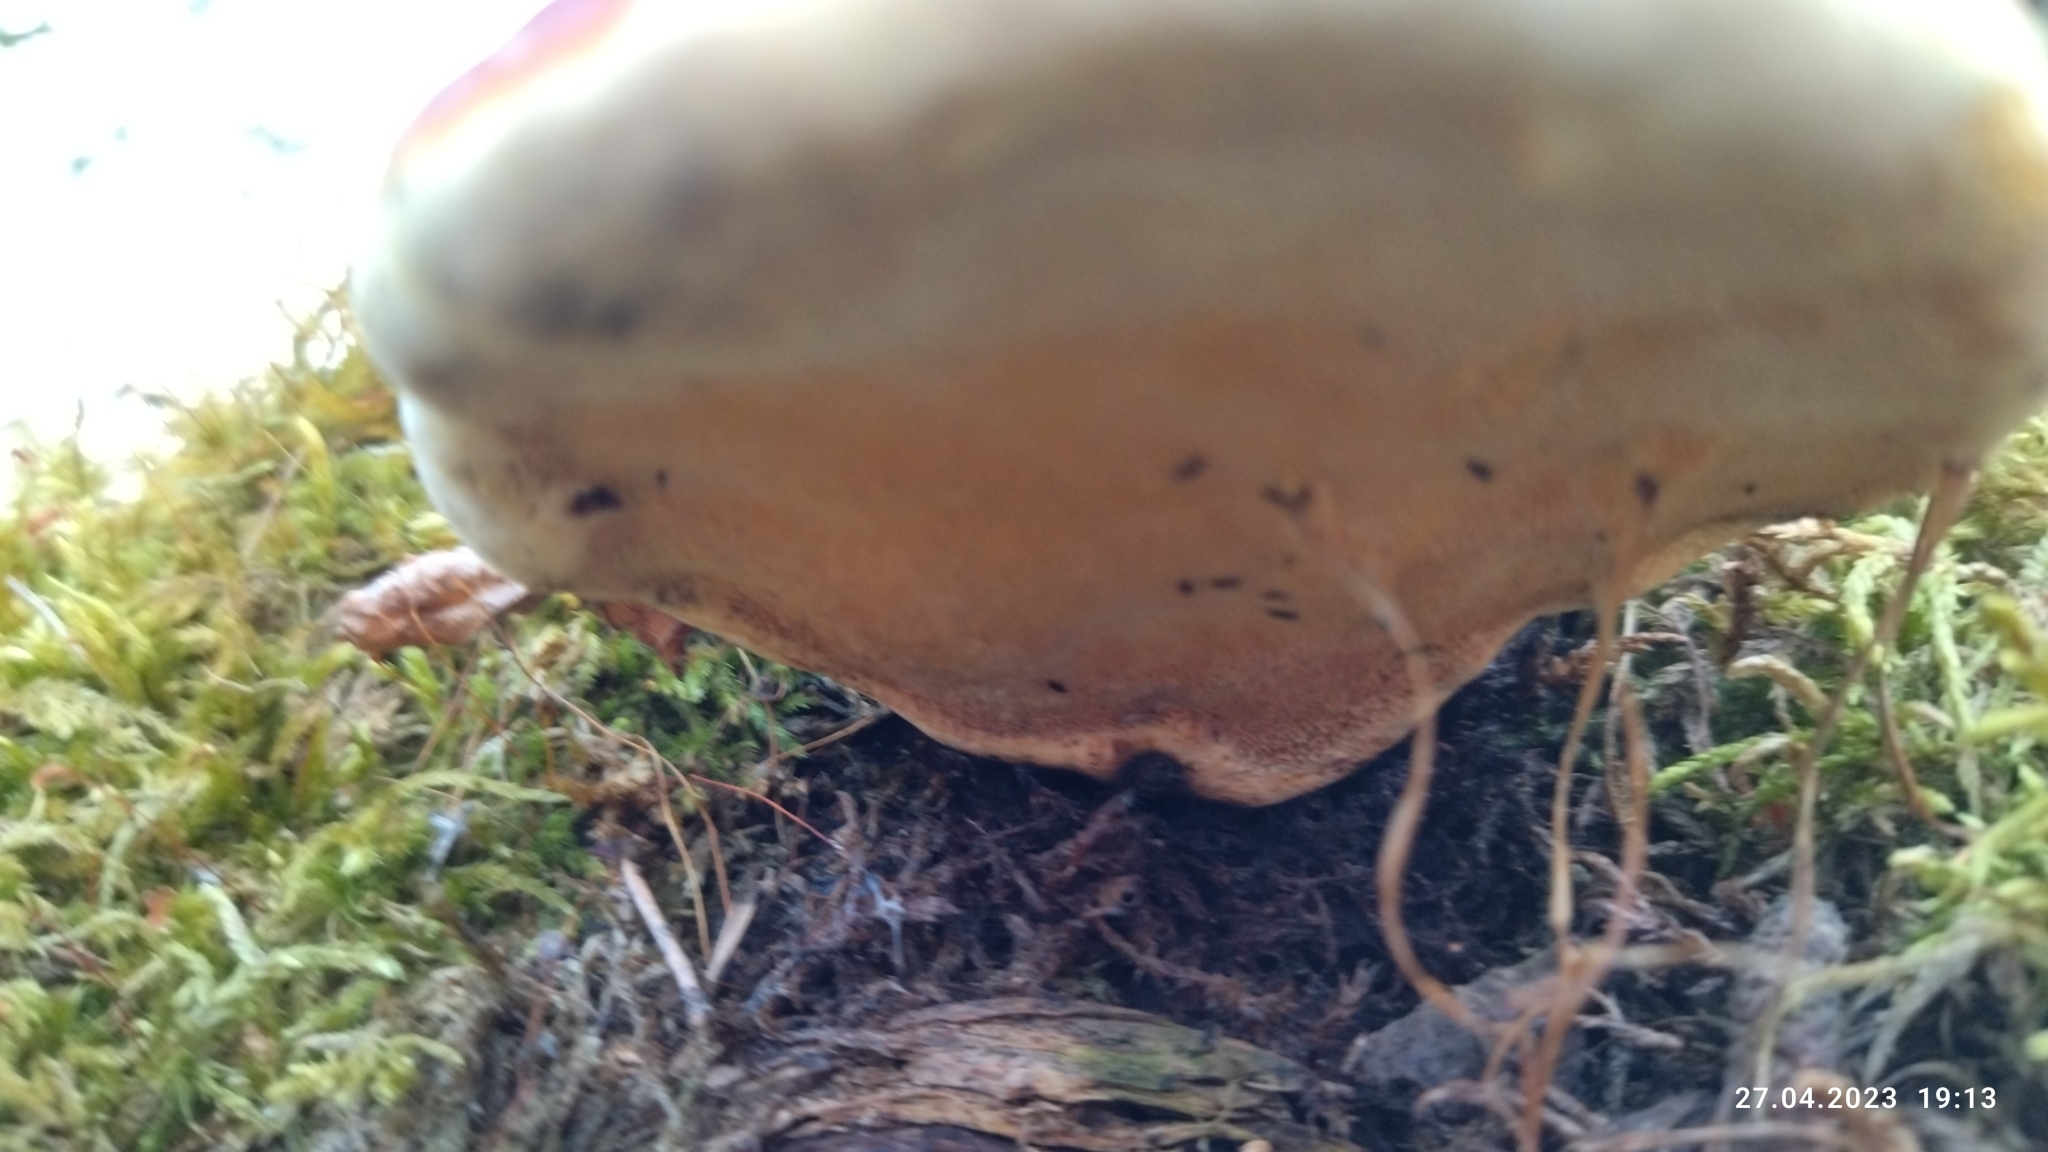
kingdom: Fungi
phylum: Basidiomycota
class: Agaricomycetes
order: Polyporales
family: Fomitopsidaceae
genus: Fomitopsis
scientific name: Fomitopsis pinicola
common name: Red-belted bracket
